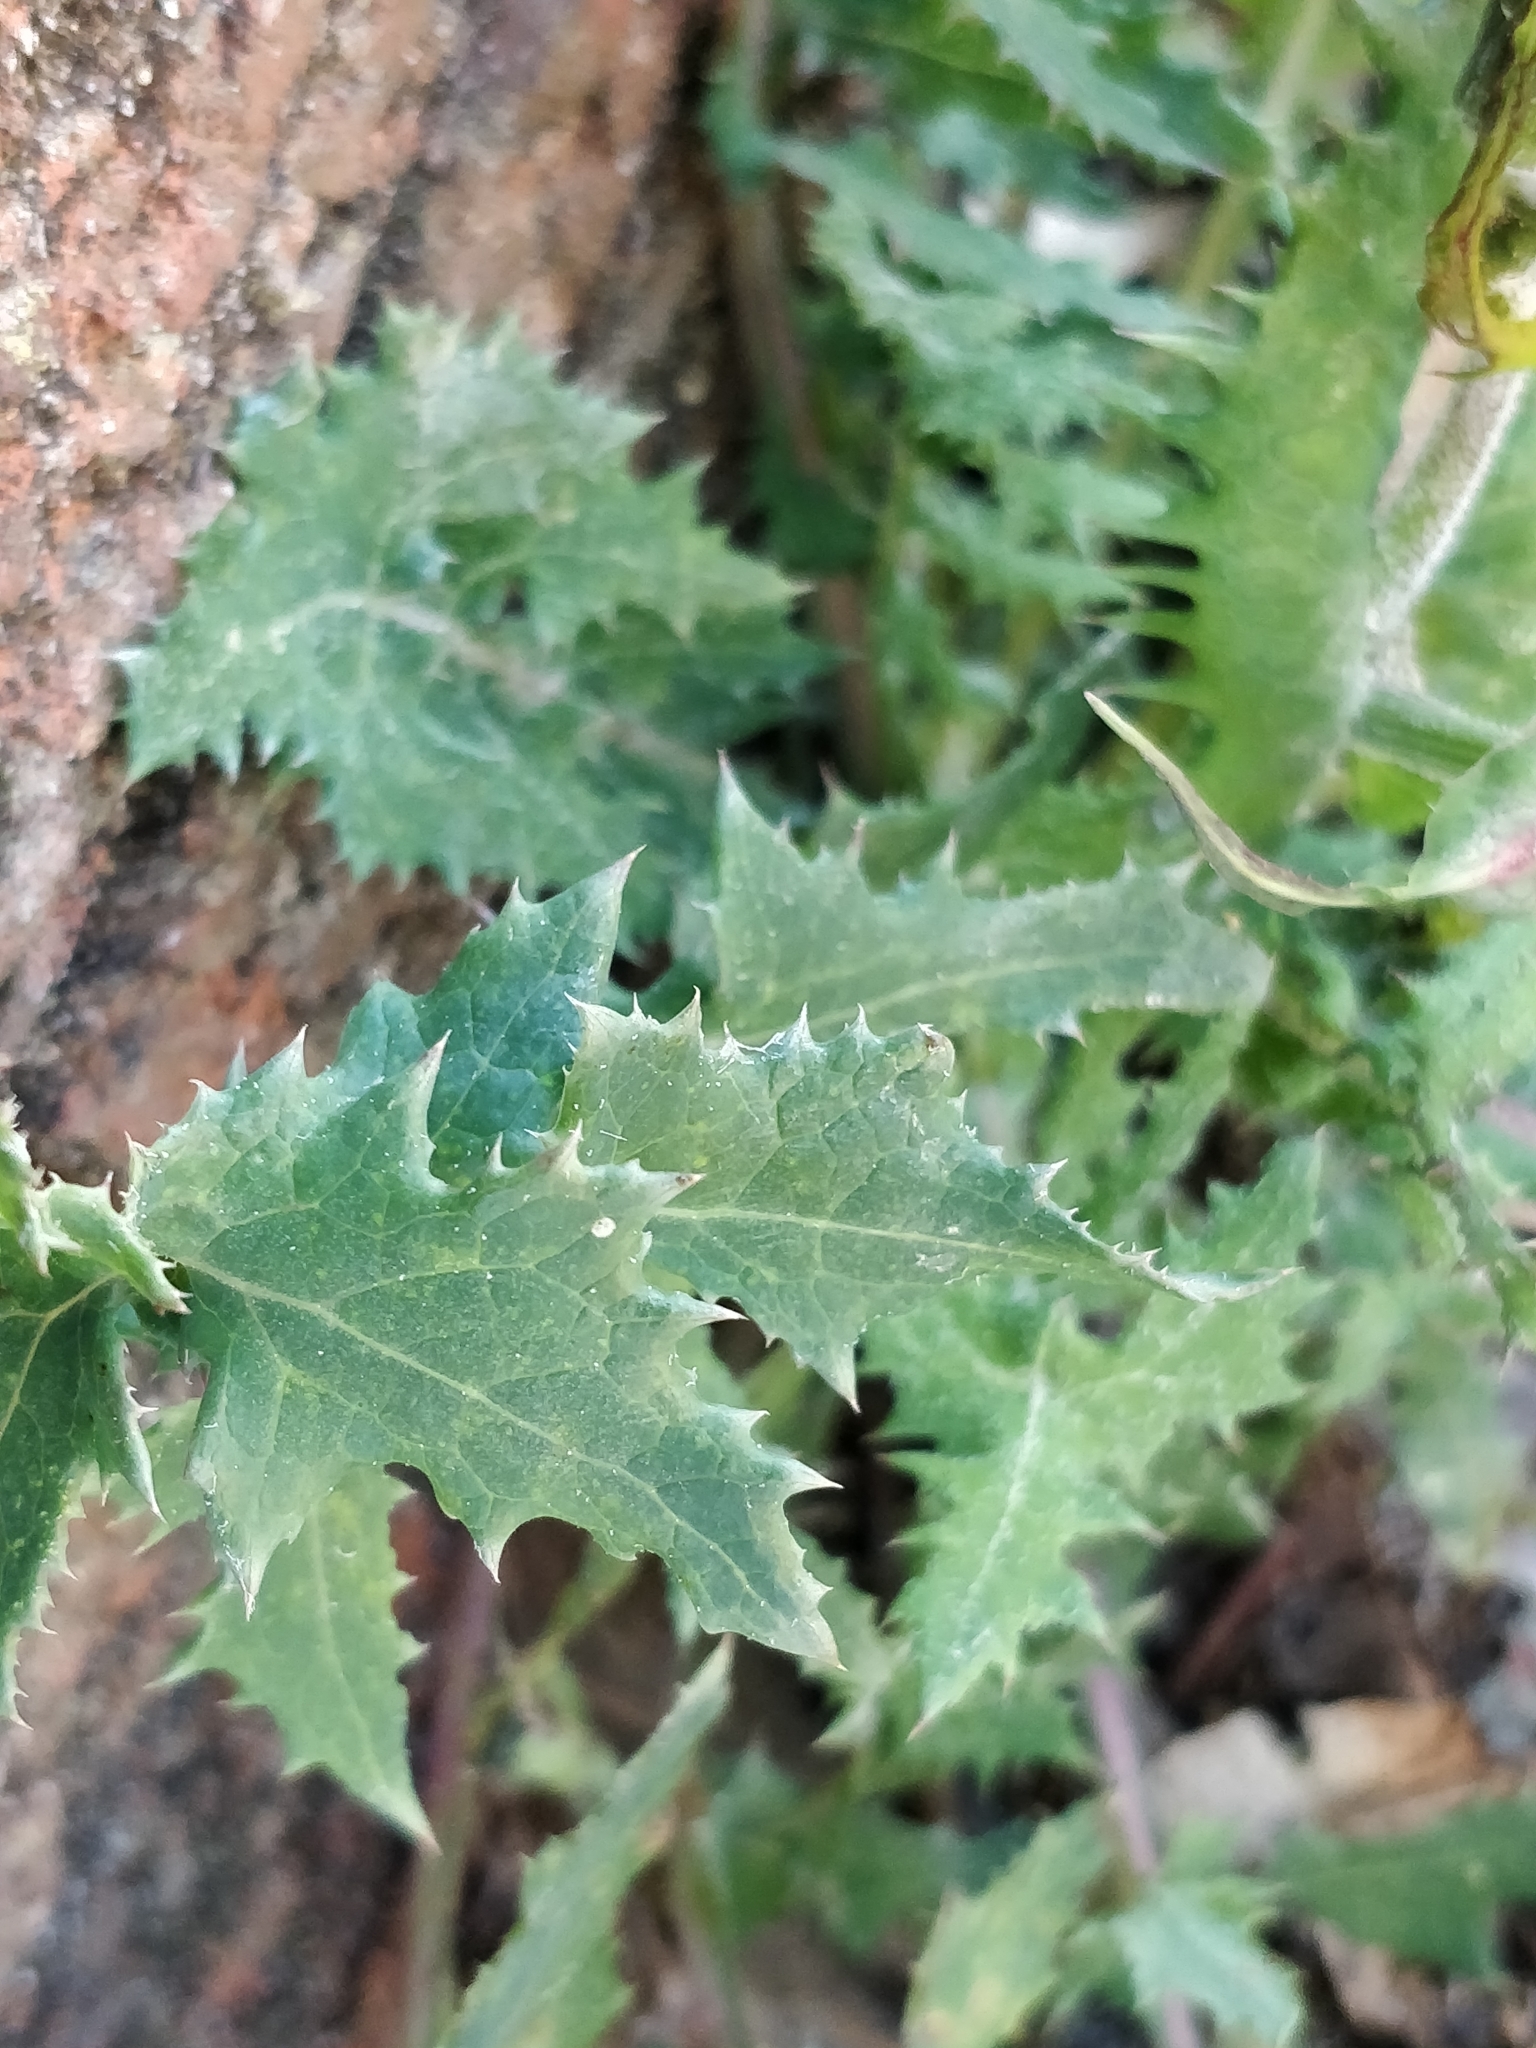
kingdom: Plantae
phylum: Tracheophyta
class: Magnoliopsida
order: Asterales
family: Asteraceae
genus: Sonchus
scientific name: Sonchus oleraceus
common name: Common sowthistle
